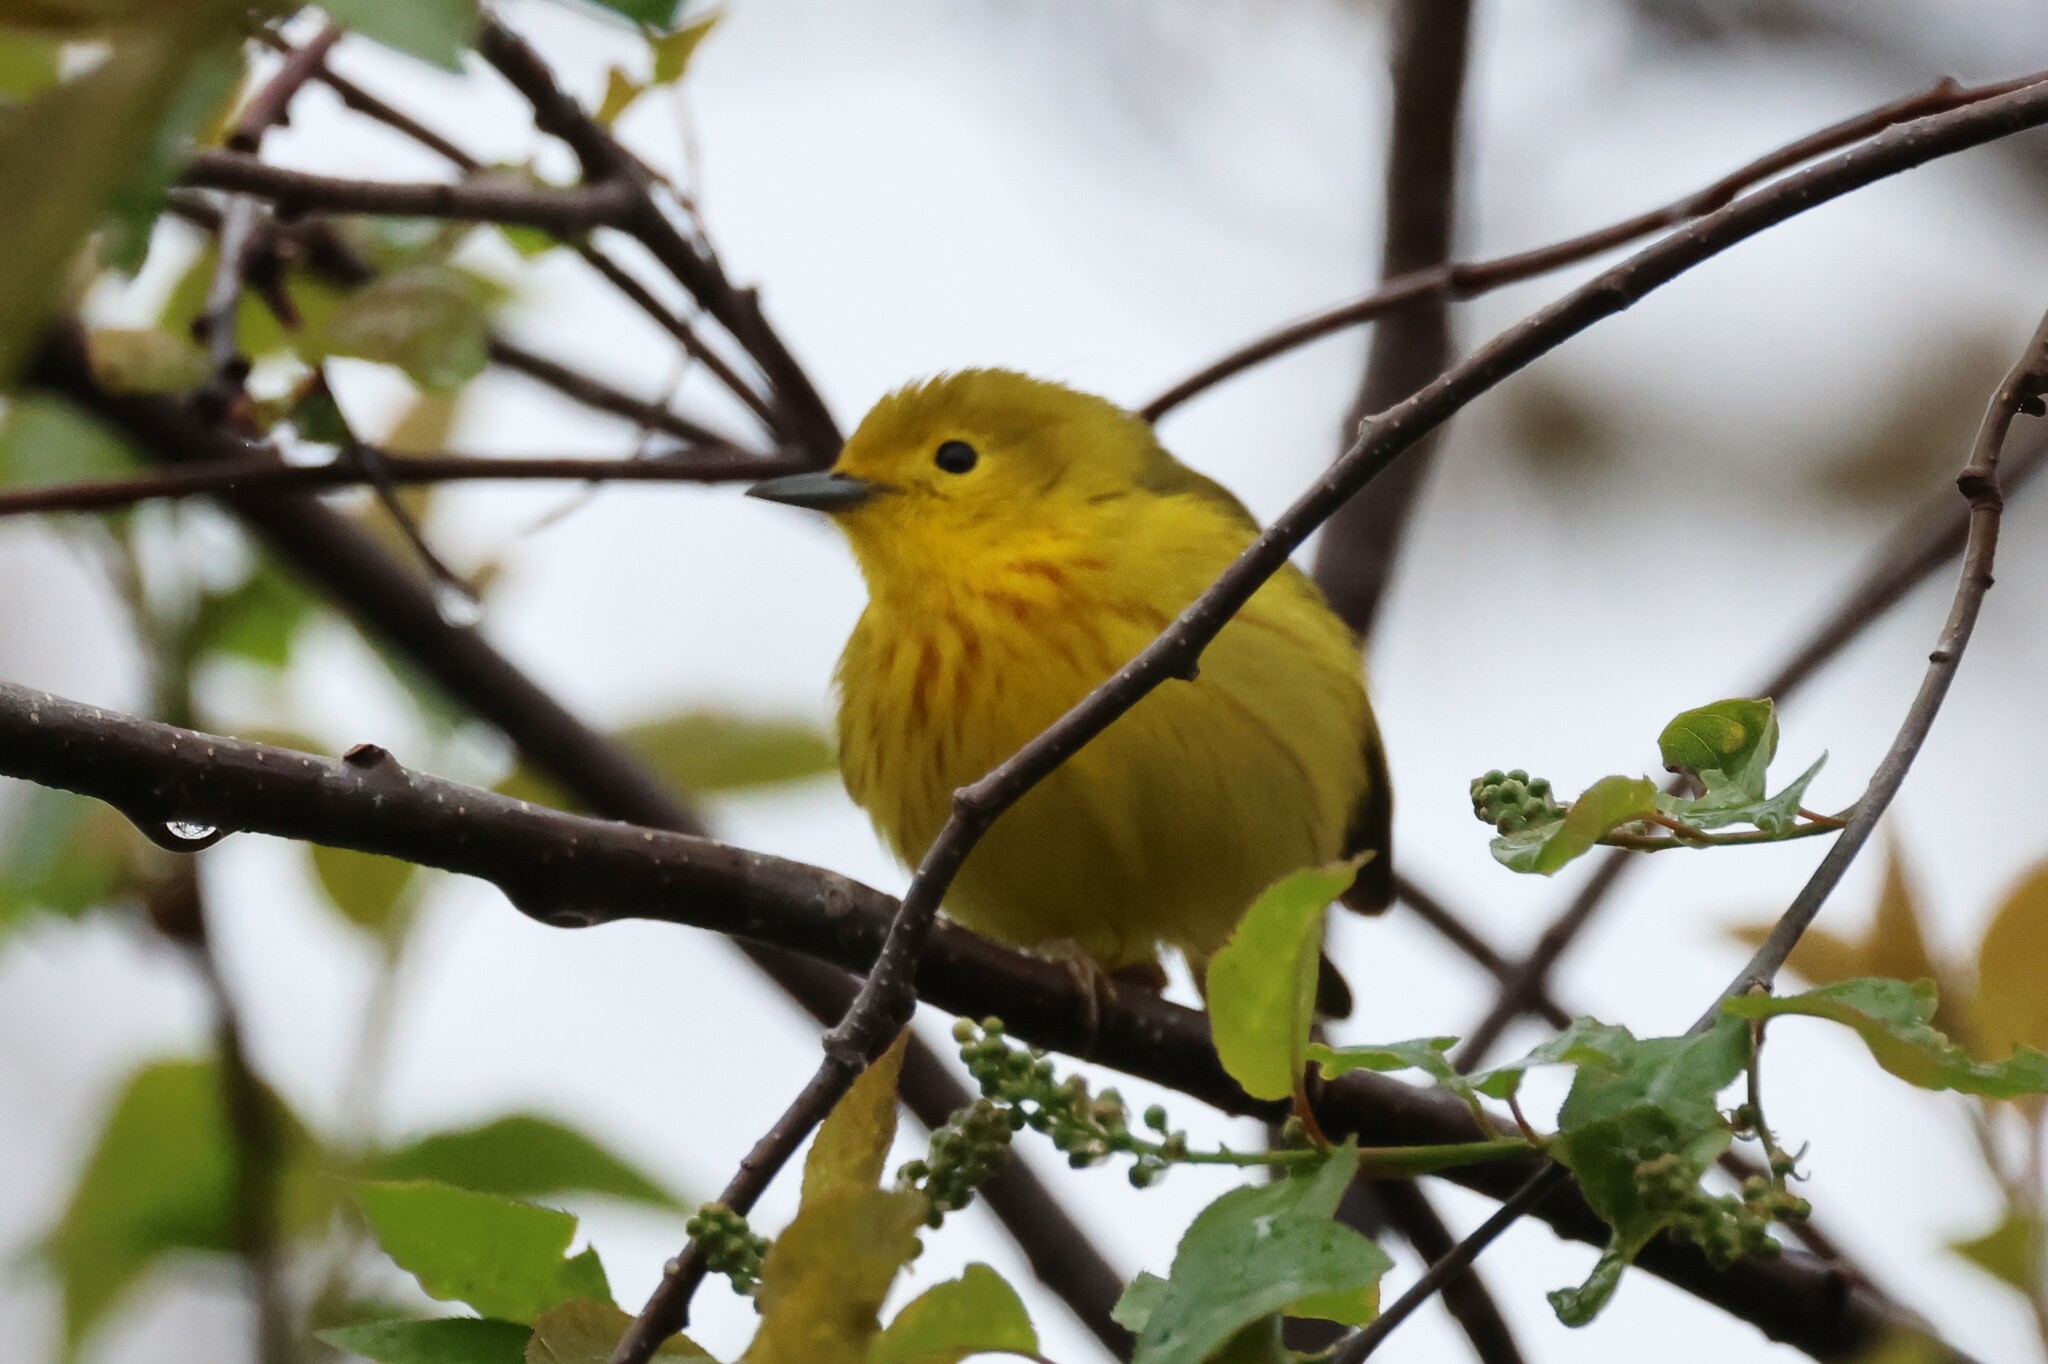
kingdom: Animalia
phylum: Chordata
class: Aves
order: Passeriformes
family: Parulidae
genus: Setophaga
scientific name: Setophaga petechia
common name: Yellow warbler
